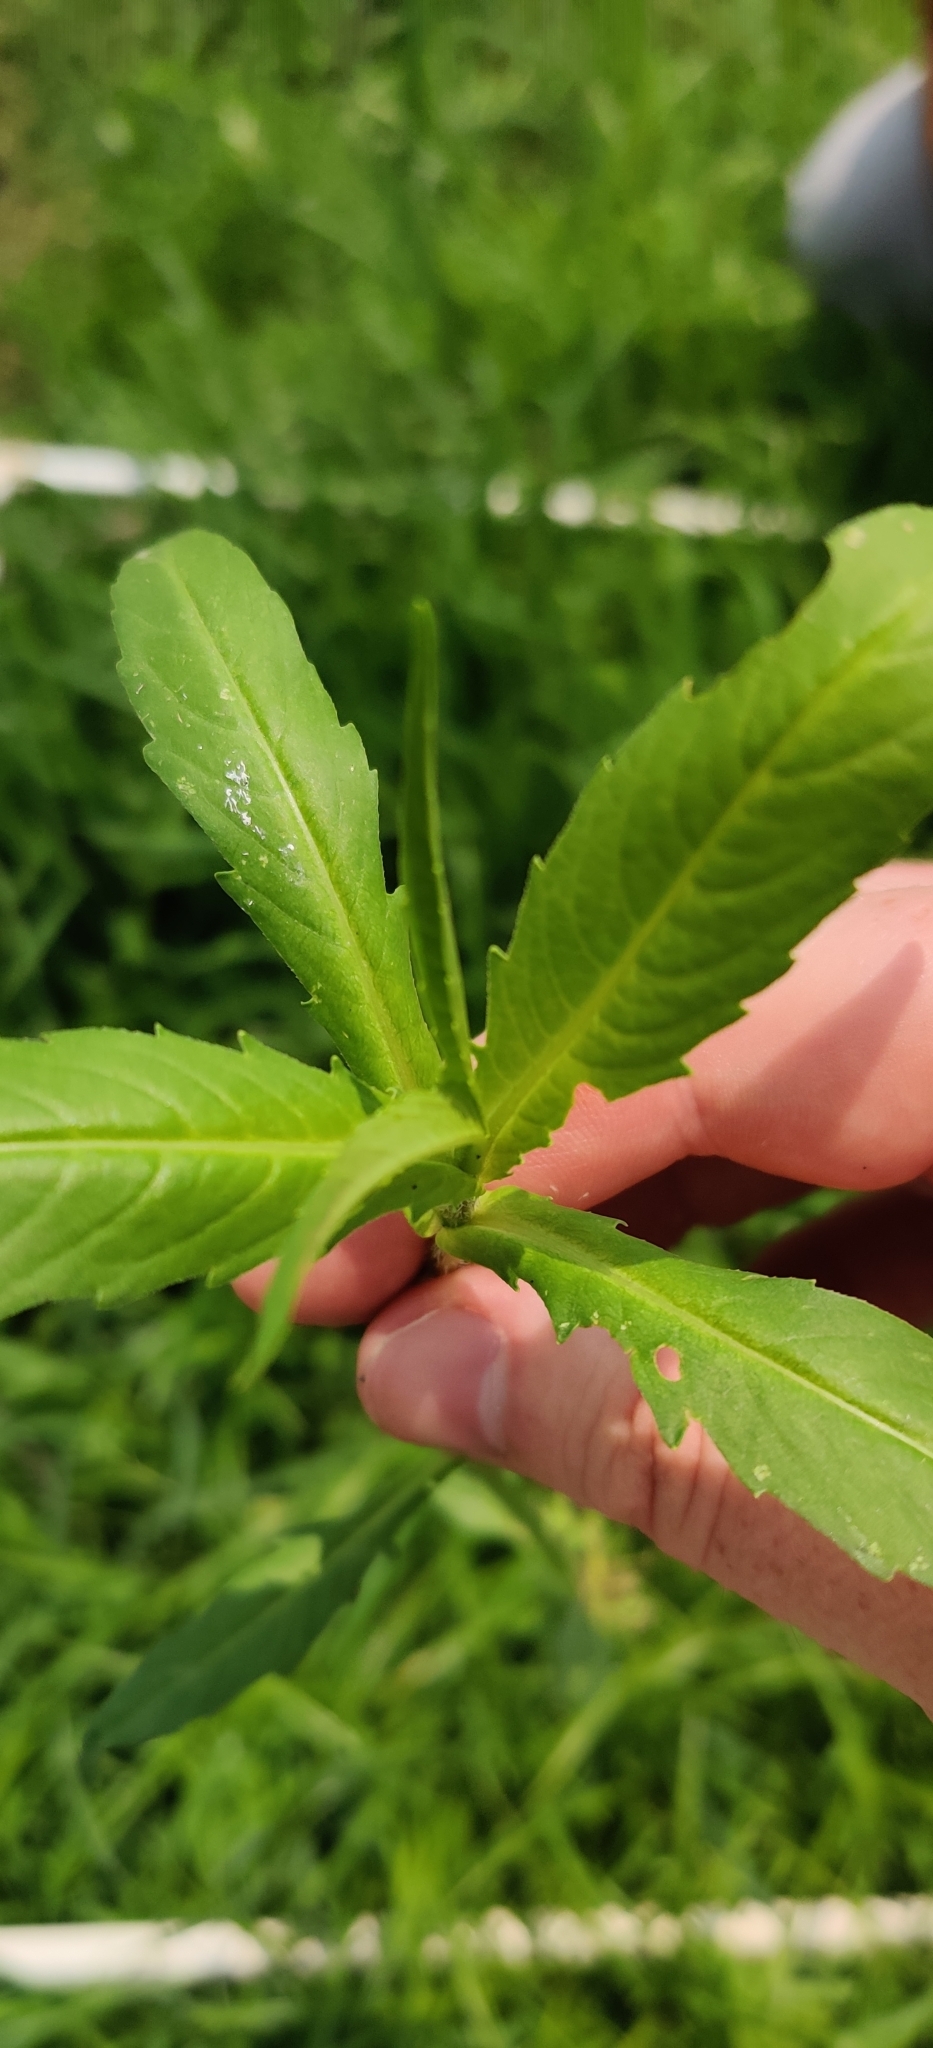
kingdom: Plantae
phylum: Tracheophyta
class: Magnoliopsida
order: Asterales
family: Asteraceae
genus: Bidens
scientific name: Bidens cernua
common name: Nodding bur-marigold
